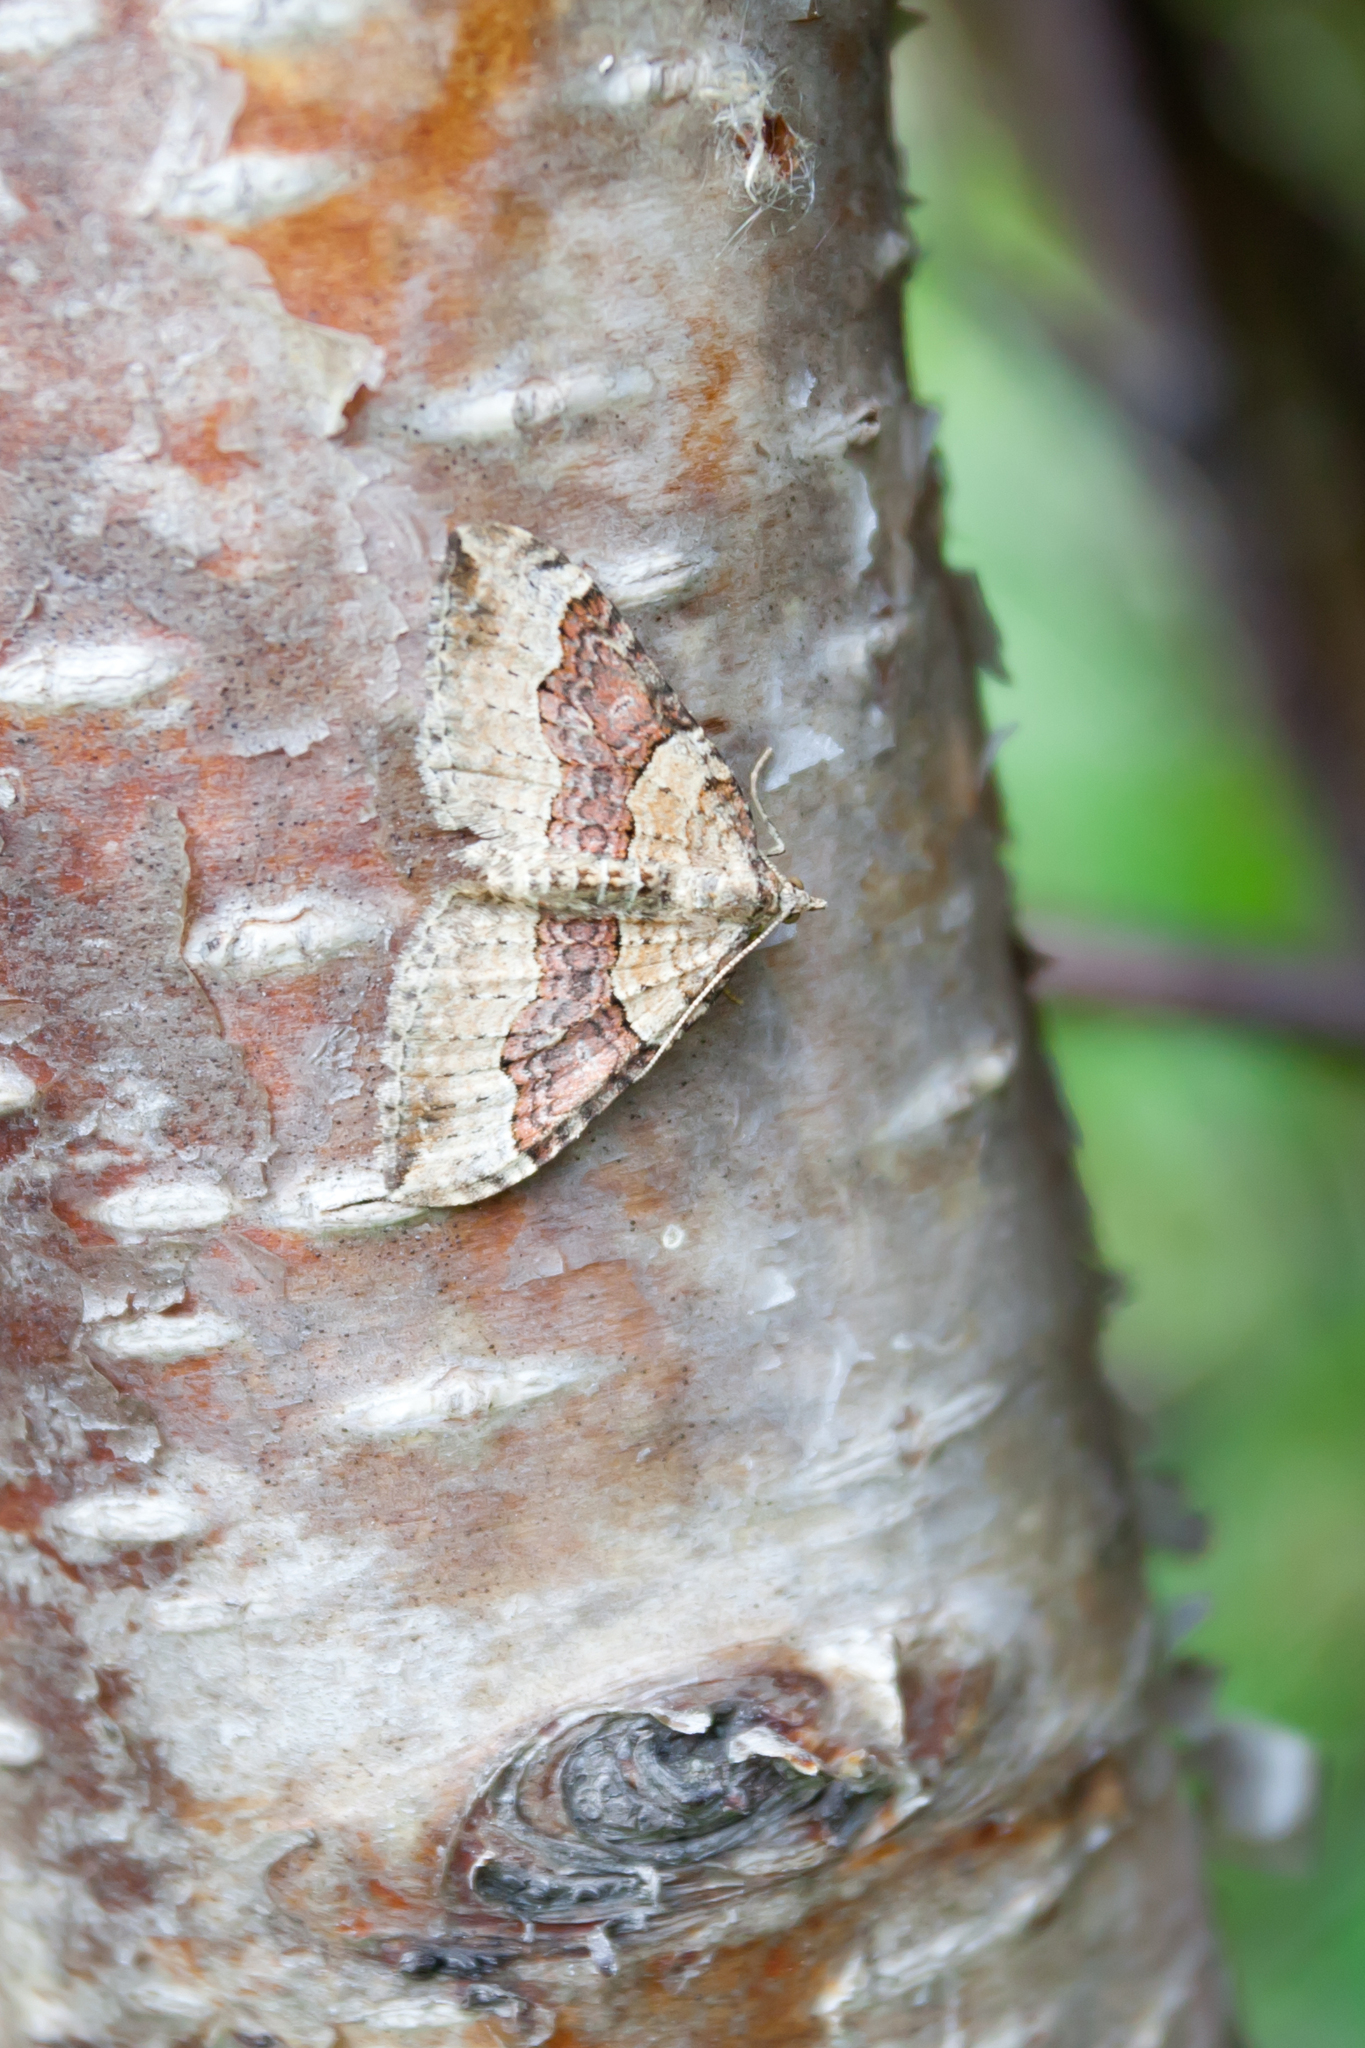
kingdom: Animalia
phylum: Arthropoda
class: Insecta
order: Lepidoptera
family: Geometridae
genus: Xanthorhoe
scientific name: Xanthorhoe decoloraria
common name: Red carpet
